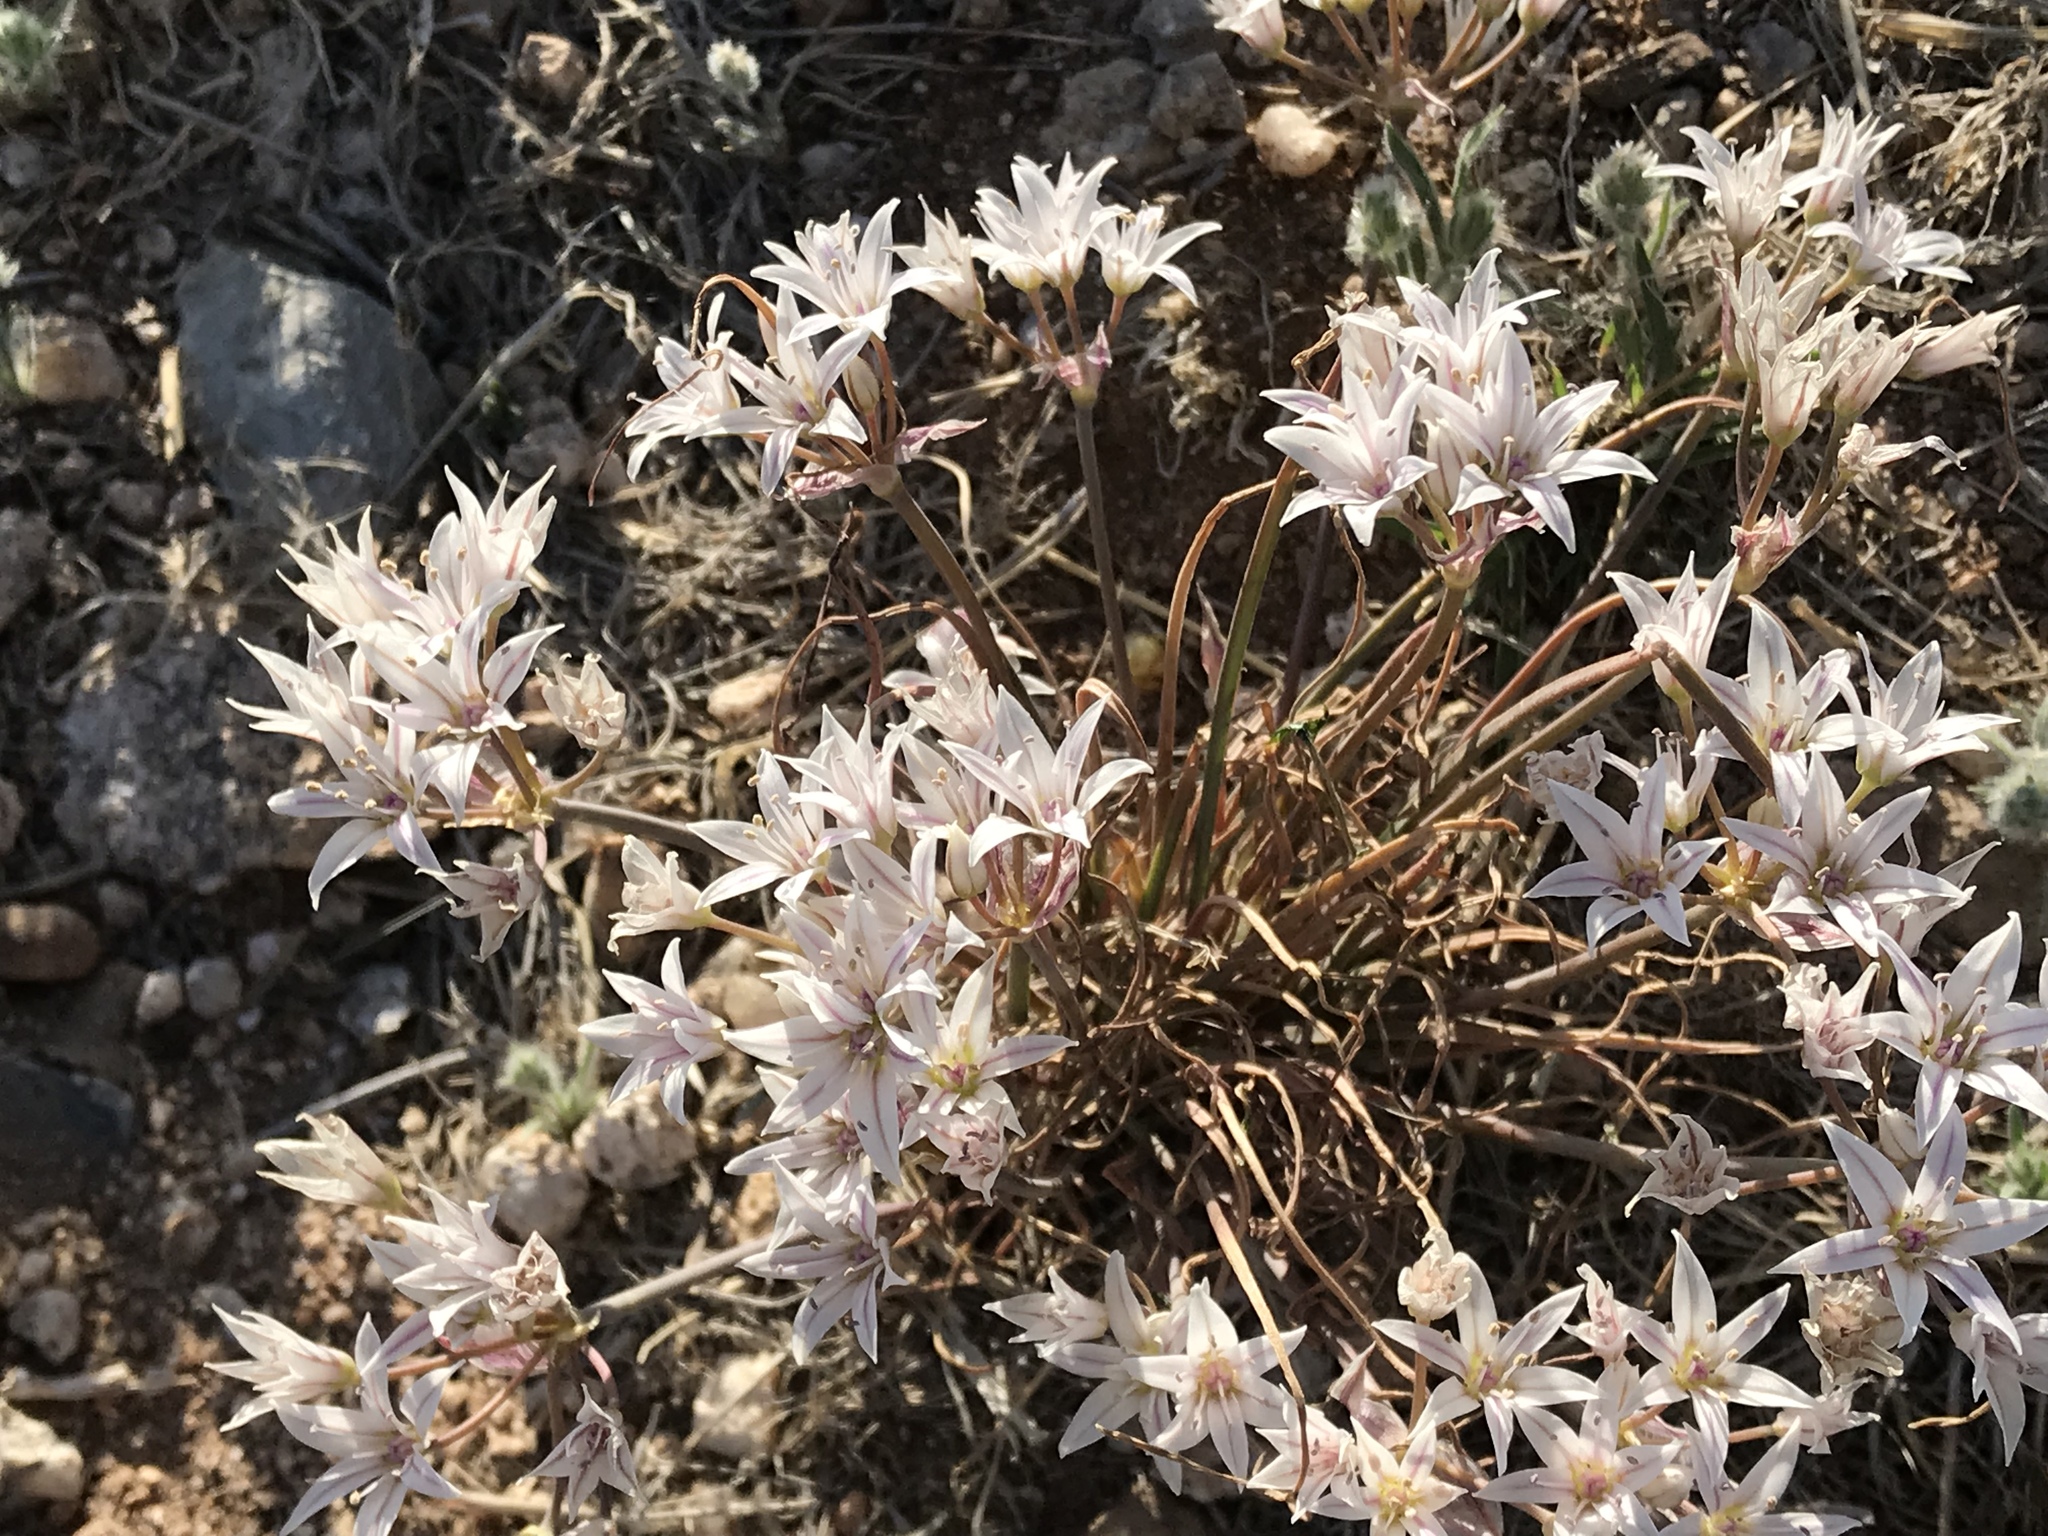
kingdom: Plantae
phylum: Tracheophyta
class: Liliopsida
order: Asparagales
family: Amaryllidaceae
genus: Allium
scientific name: Allium macropetalum
